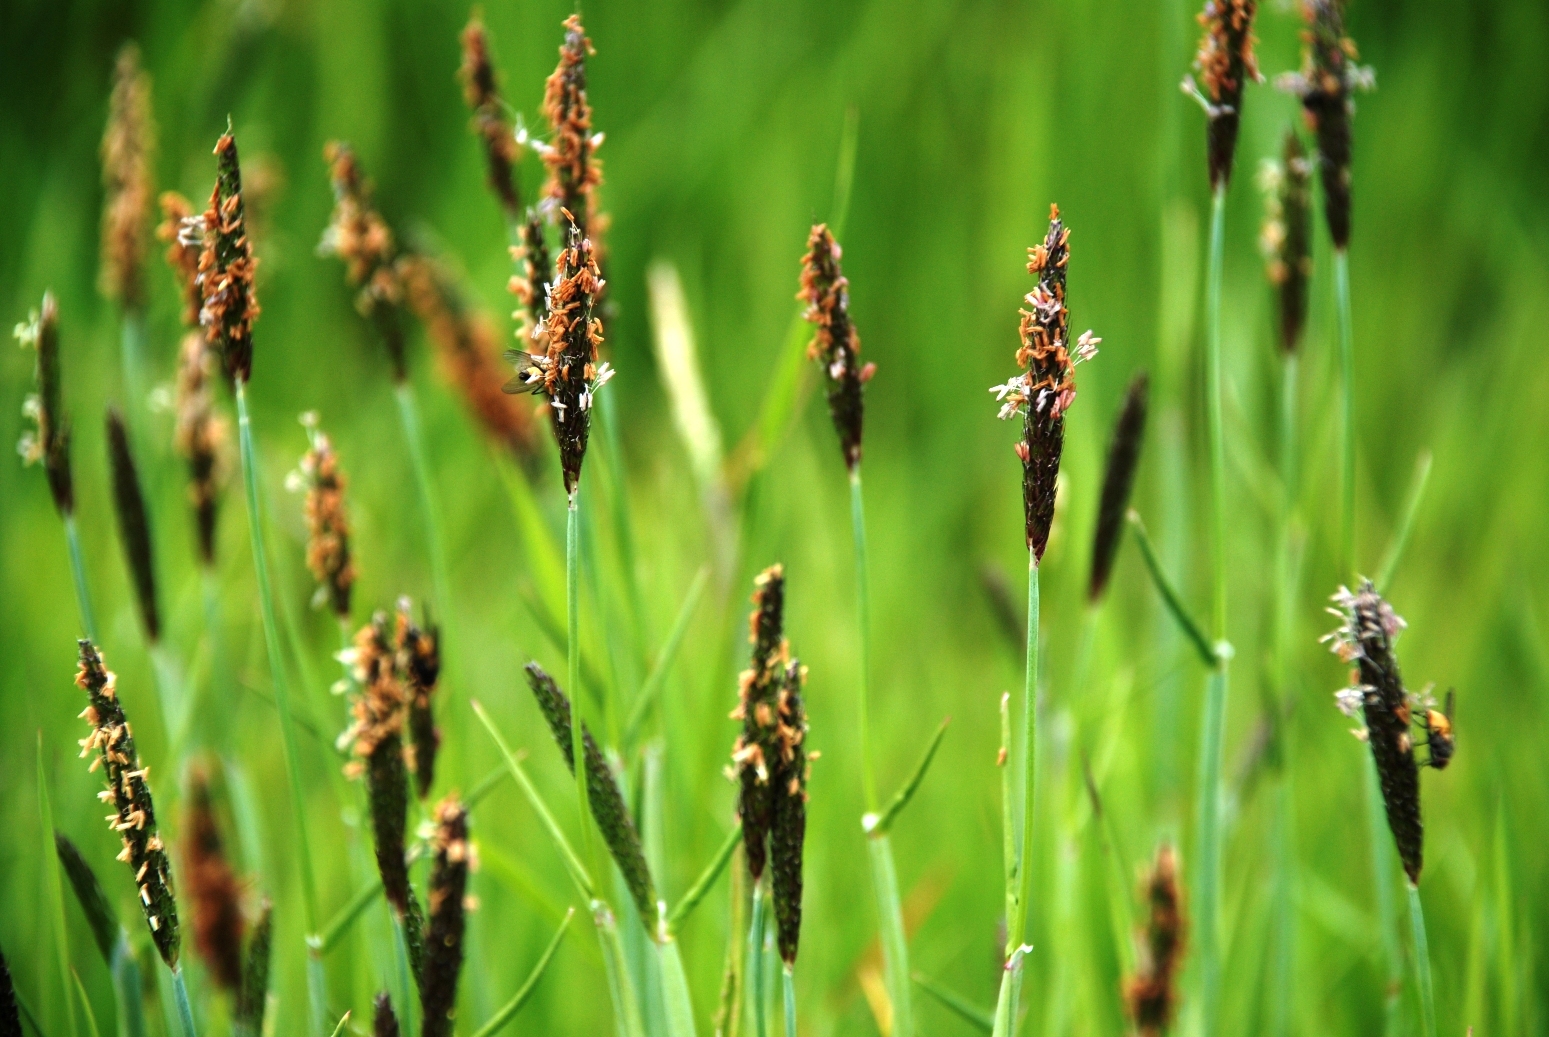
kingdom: Plantae
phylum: Tracheophyta
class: Liliopsida
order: Poales
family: Poaceae
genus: Alopecurus
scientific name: Alopecurus geniculatus
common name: Water foxtail
